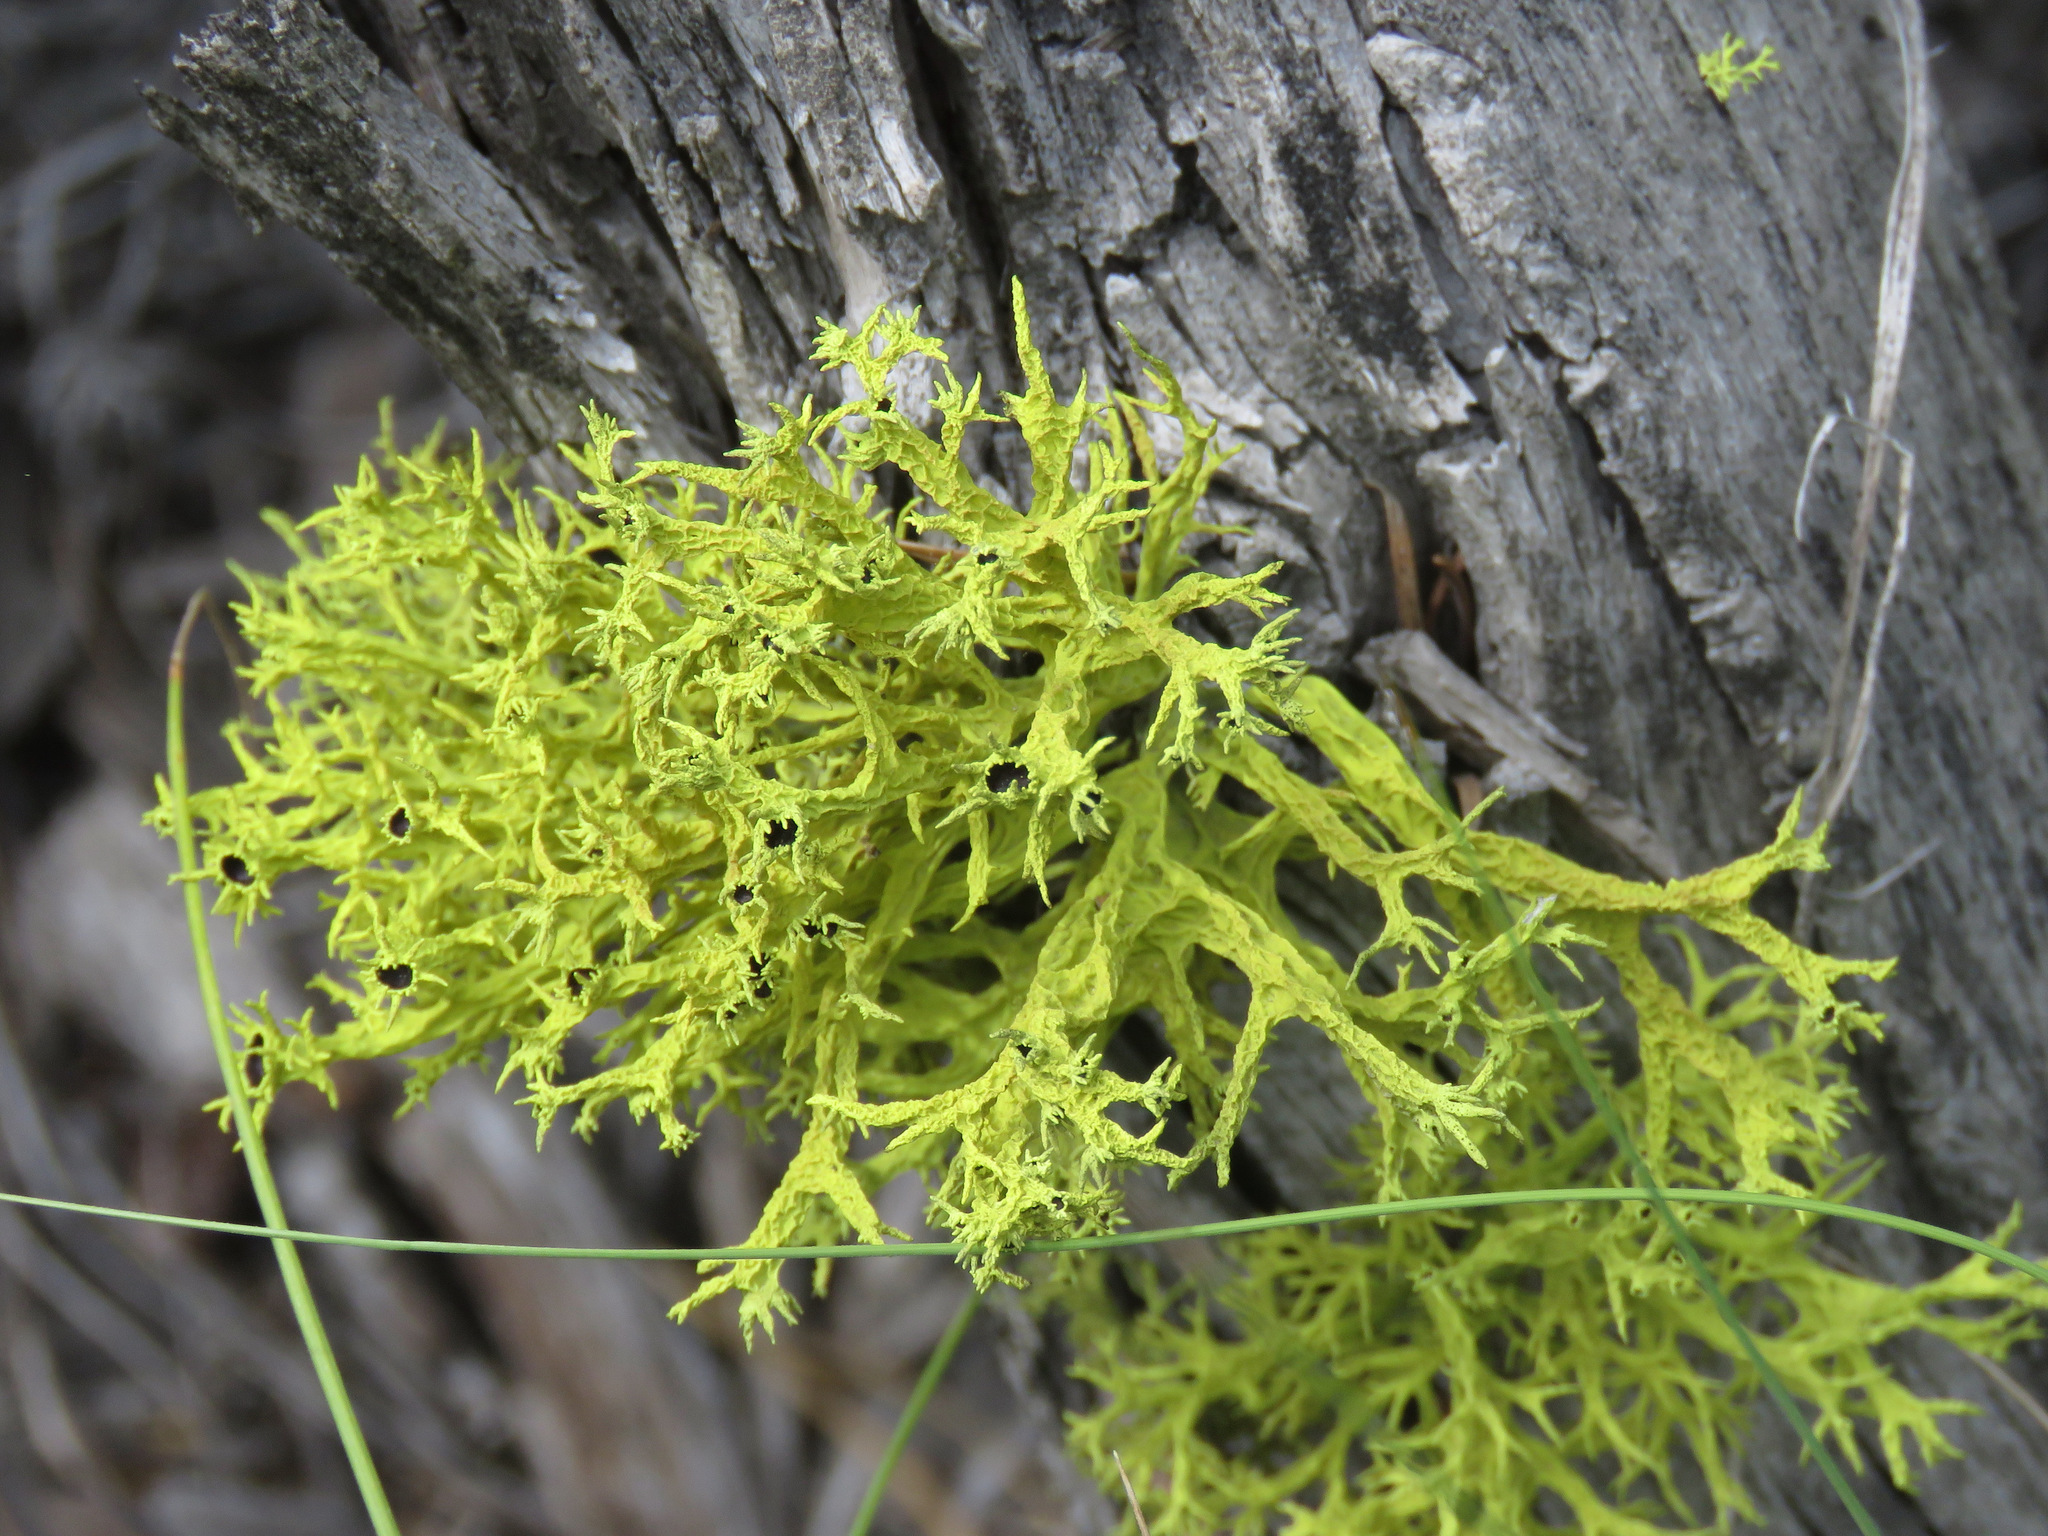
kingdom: Fungi
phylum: Ascomycota
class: Lecanoromycetes
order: Lecanorales
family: Parmeliaceae
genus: Letharia
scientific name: Letharia columbiana
